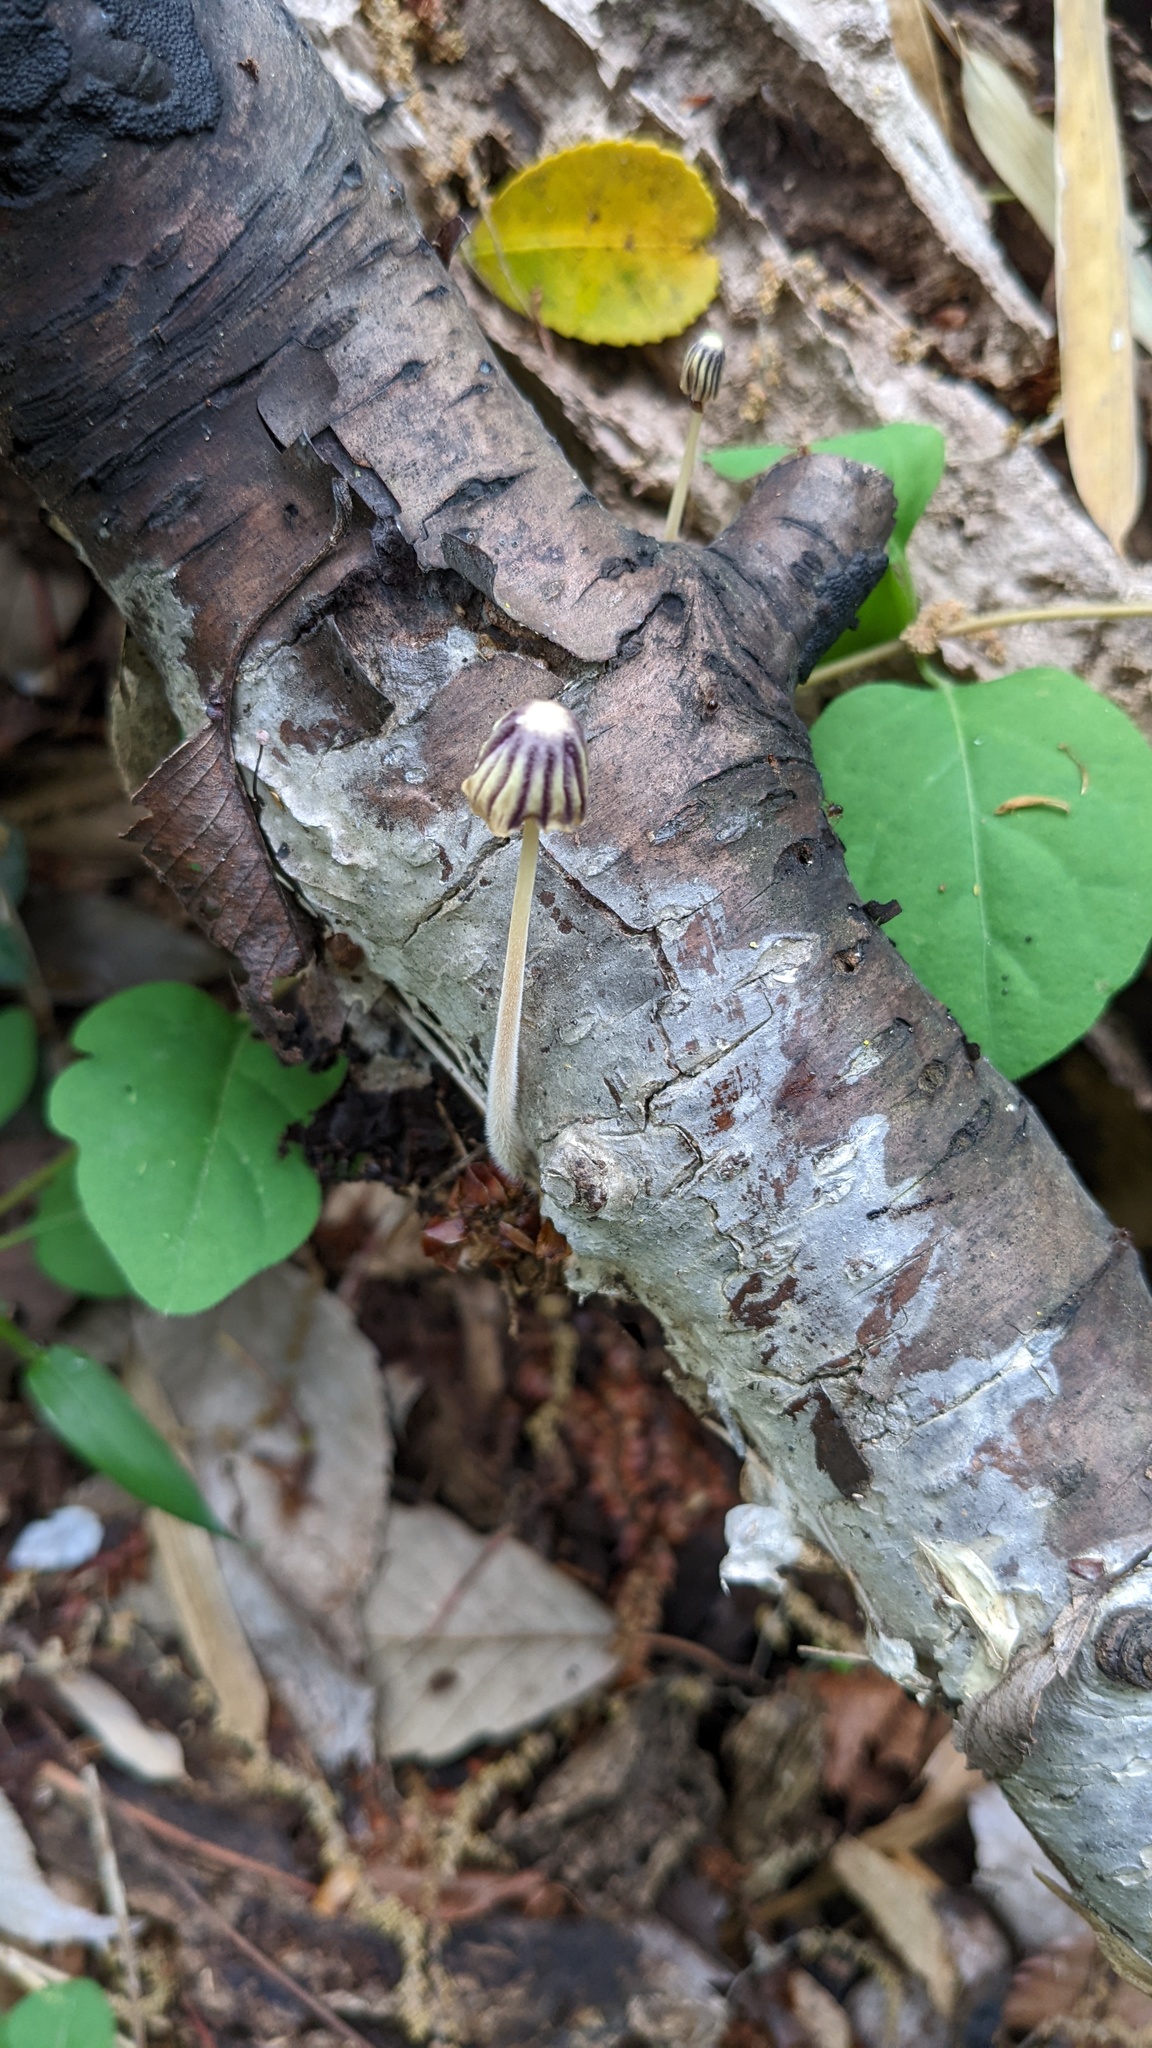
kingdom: Fungi
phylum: Basidiomycota
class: Agaricomycetes
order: Agaricales
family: Marasmiaceae
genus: Marasmius
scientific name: Marasmius purpureostriatus
